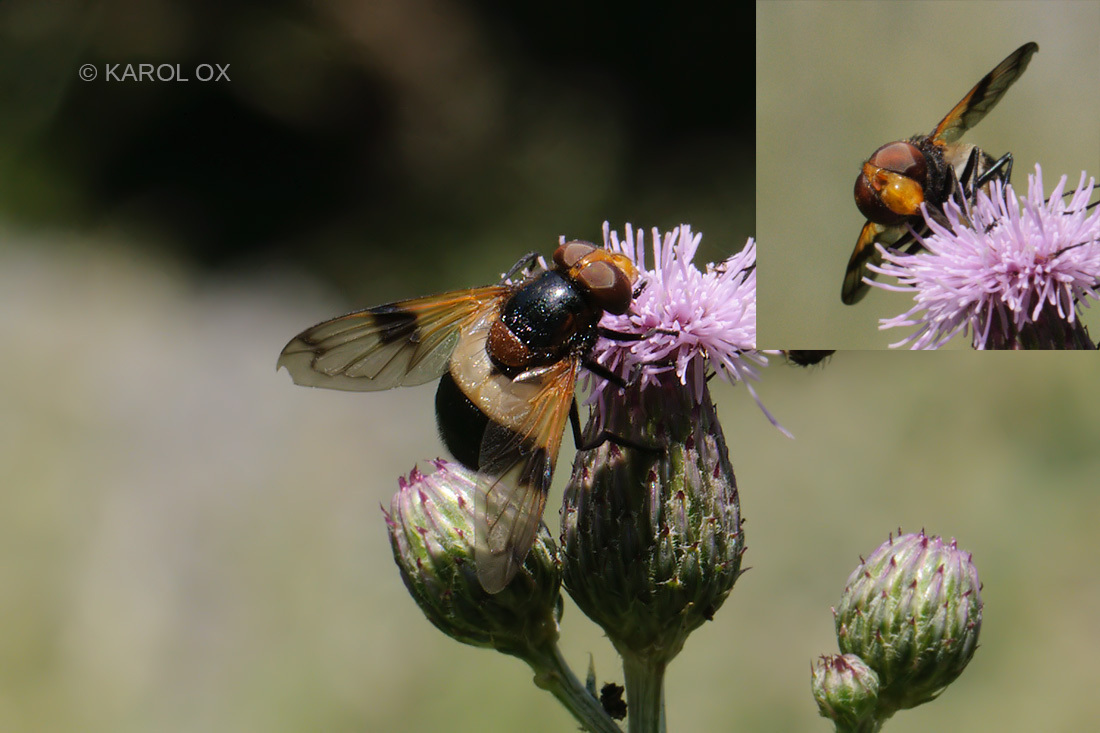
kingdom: Animalia
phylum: Arthropoda
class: Insecta
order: Diptera
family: Syrphidae
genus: Volucella
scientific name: Volucella pellucens
